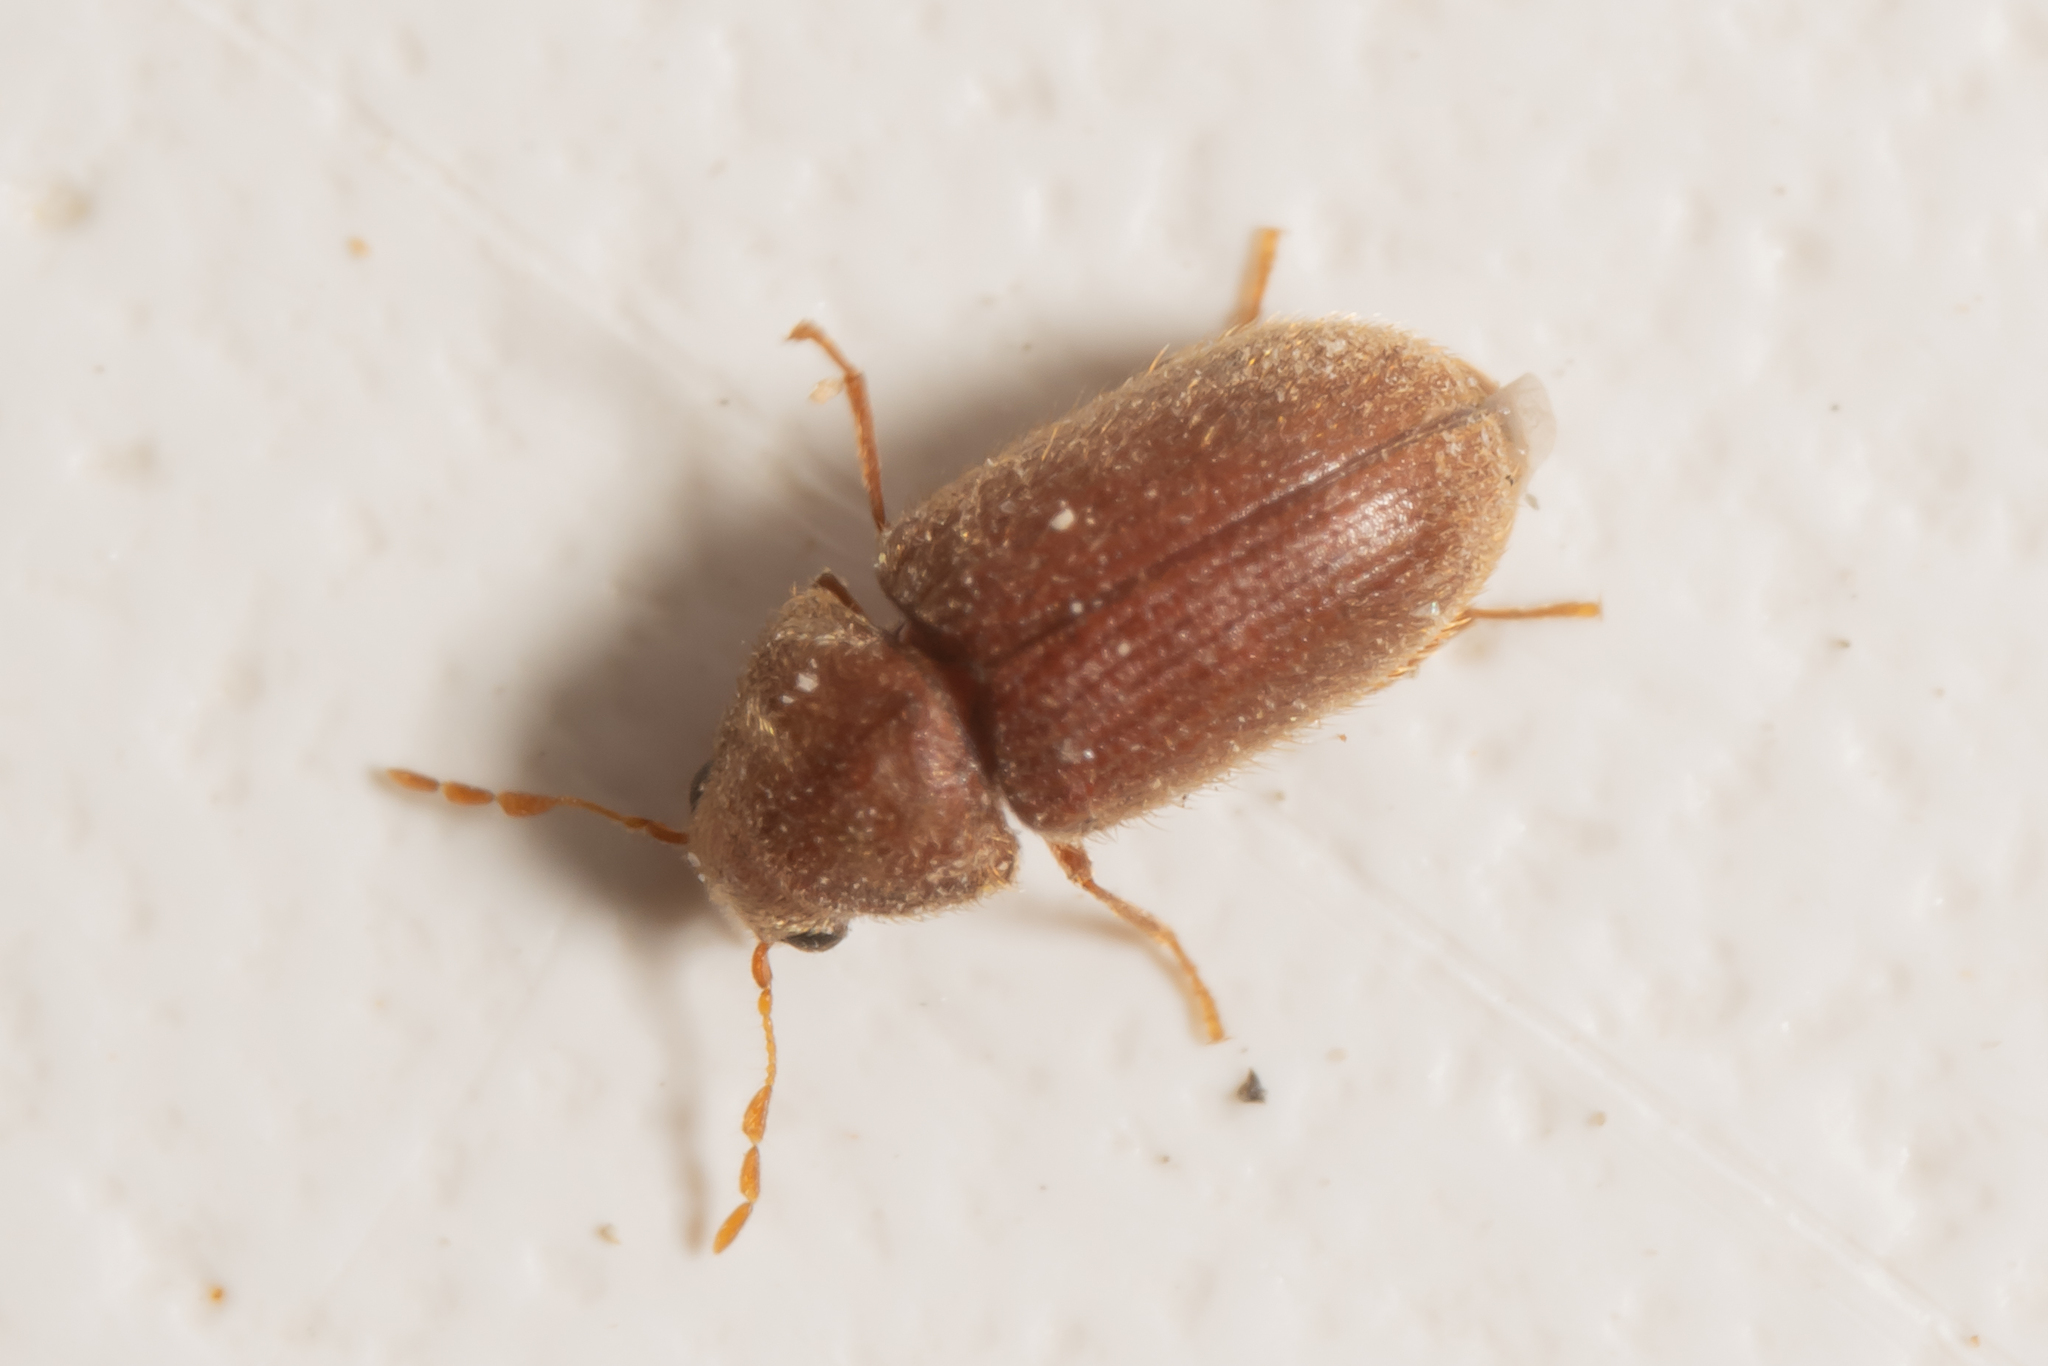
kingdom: Animalia
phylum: Arthropoda
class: Insecta
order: Coleoptera
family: Anobiidae
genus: Stegobium
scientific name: Stegobium paniceum
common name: Drugstore beetle
